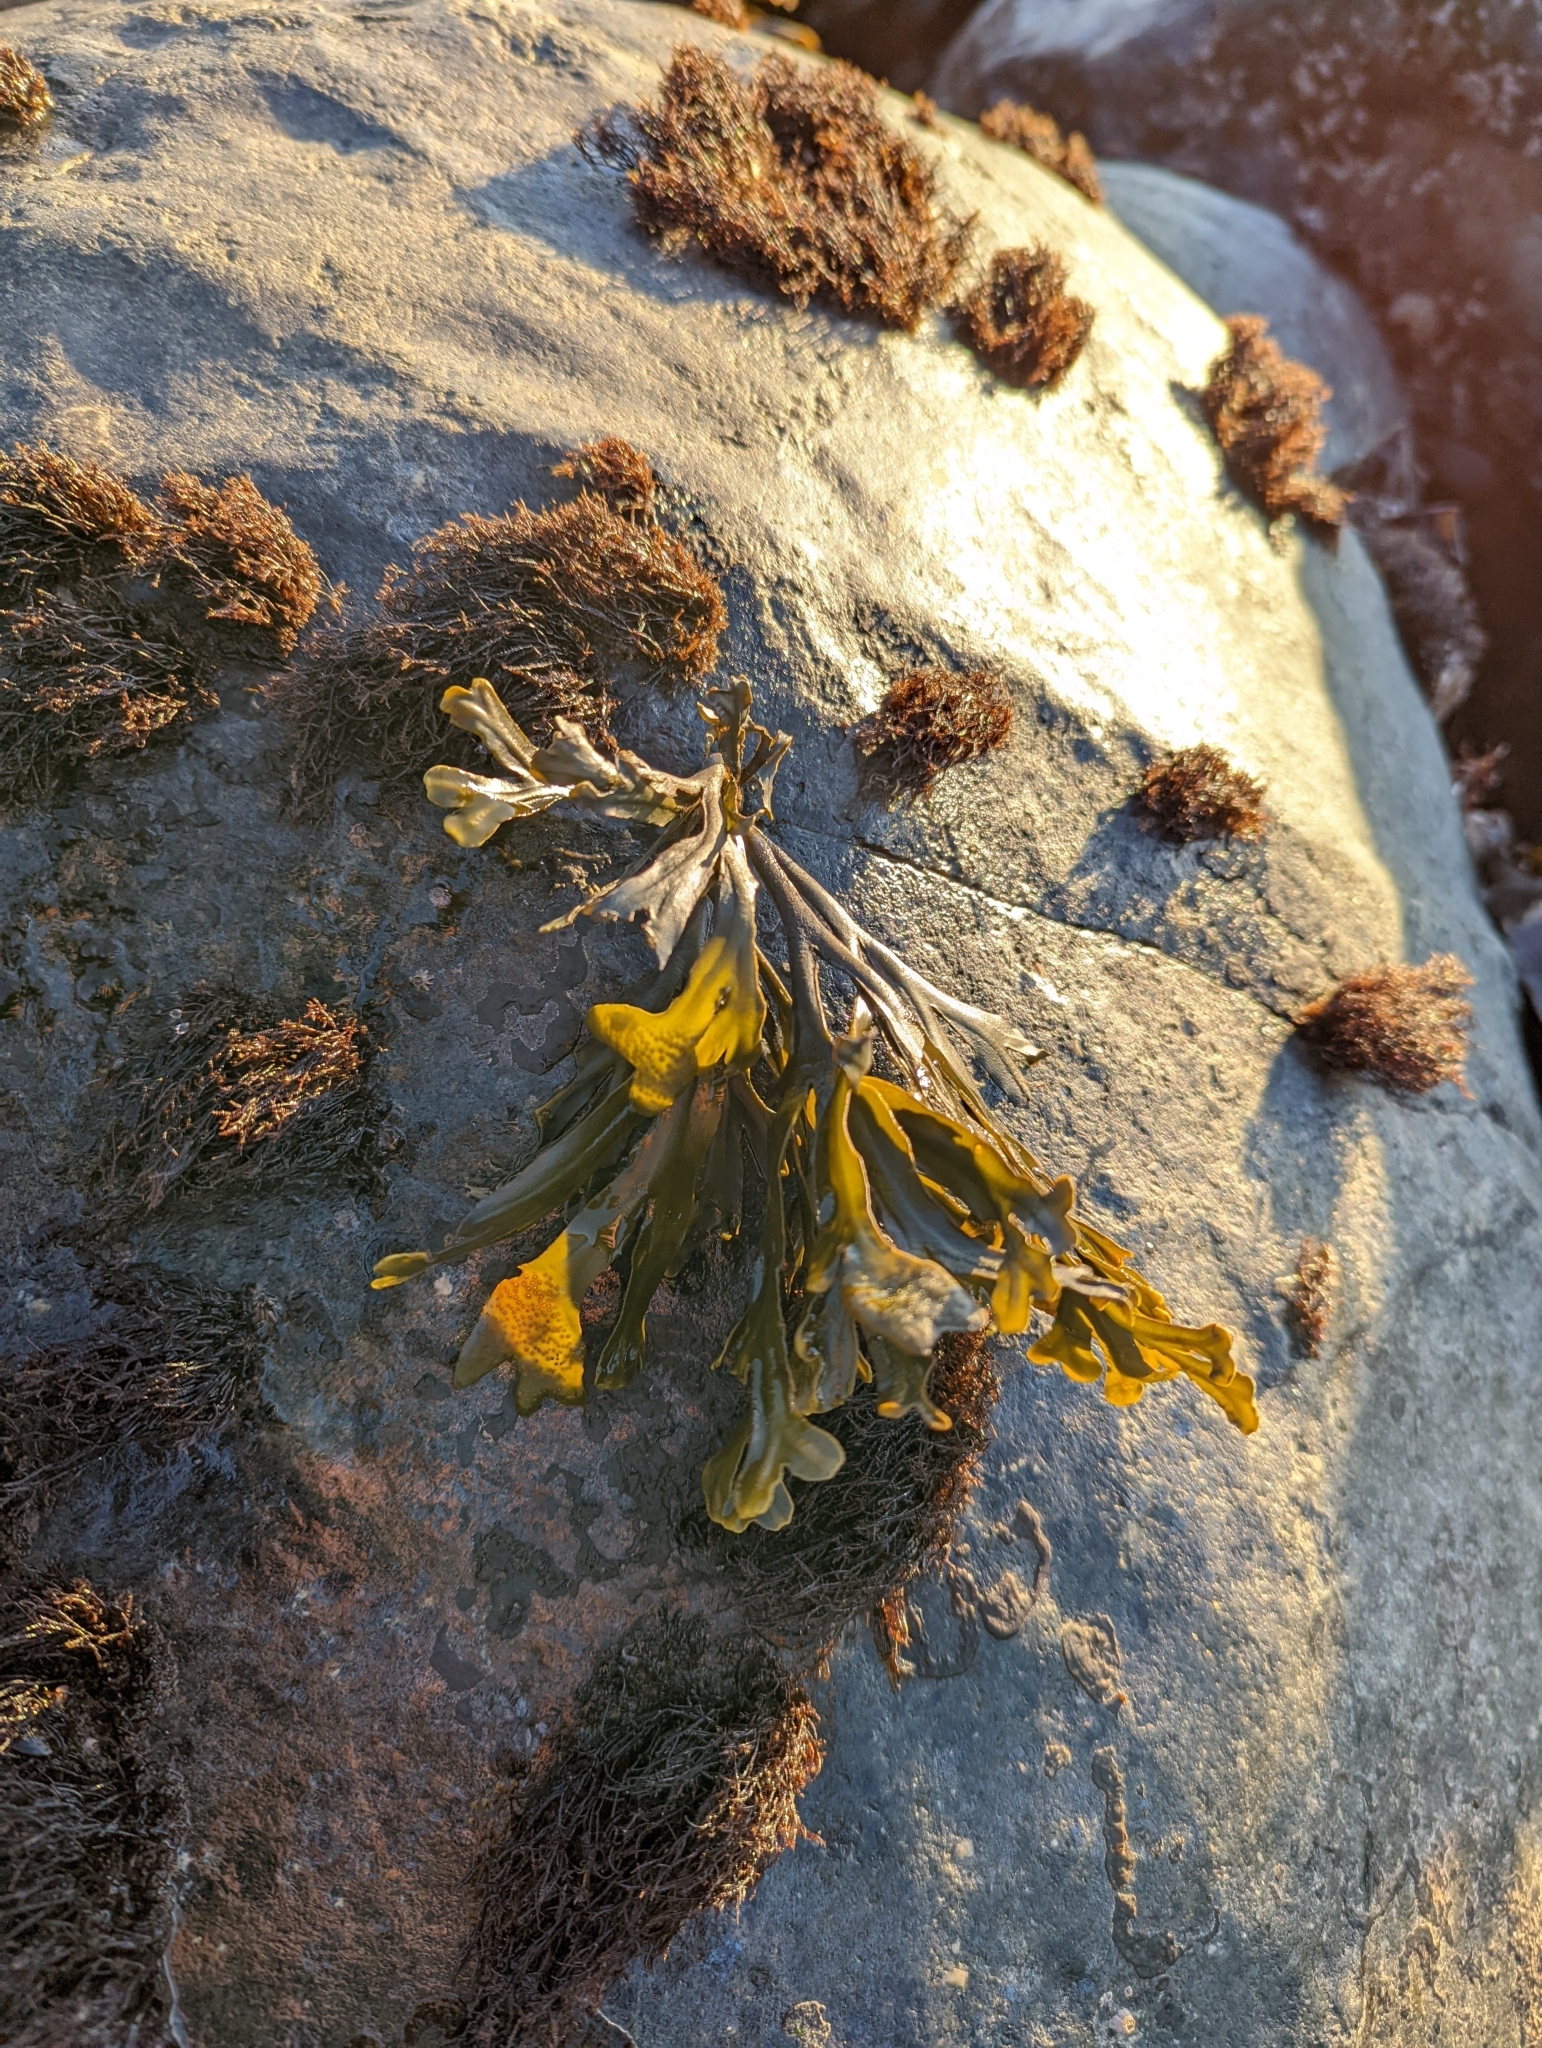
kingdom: Chromista
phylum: Ochrophyta
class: Phaeophyceae
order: Fucales
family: Fucaceae
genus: Fucus
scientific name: Fucus distichus
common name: Rockweed
